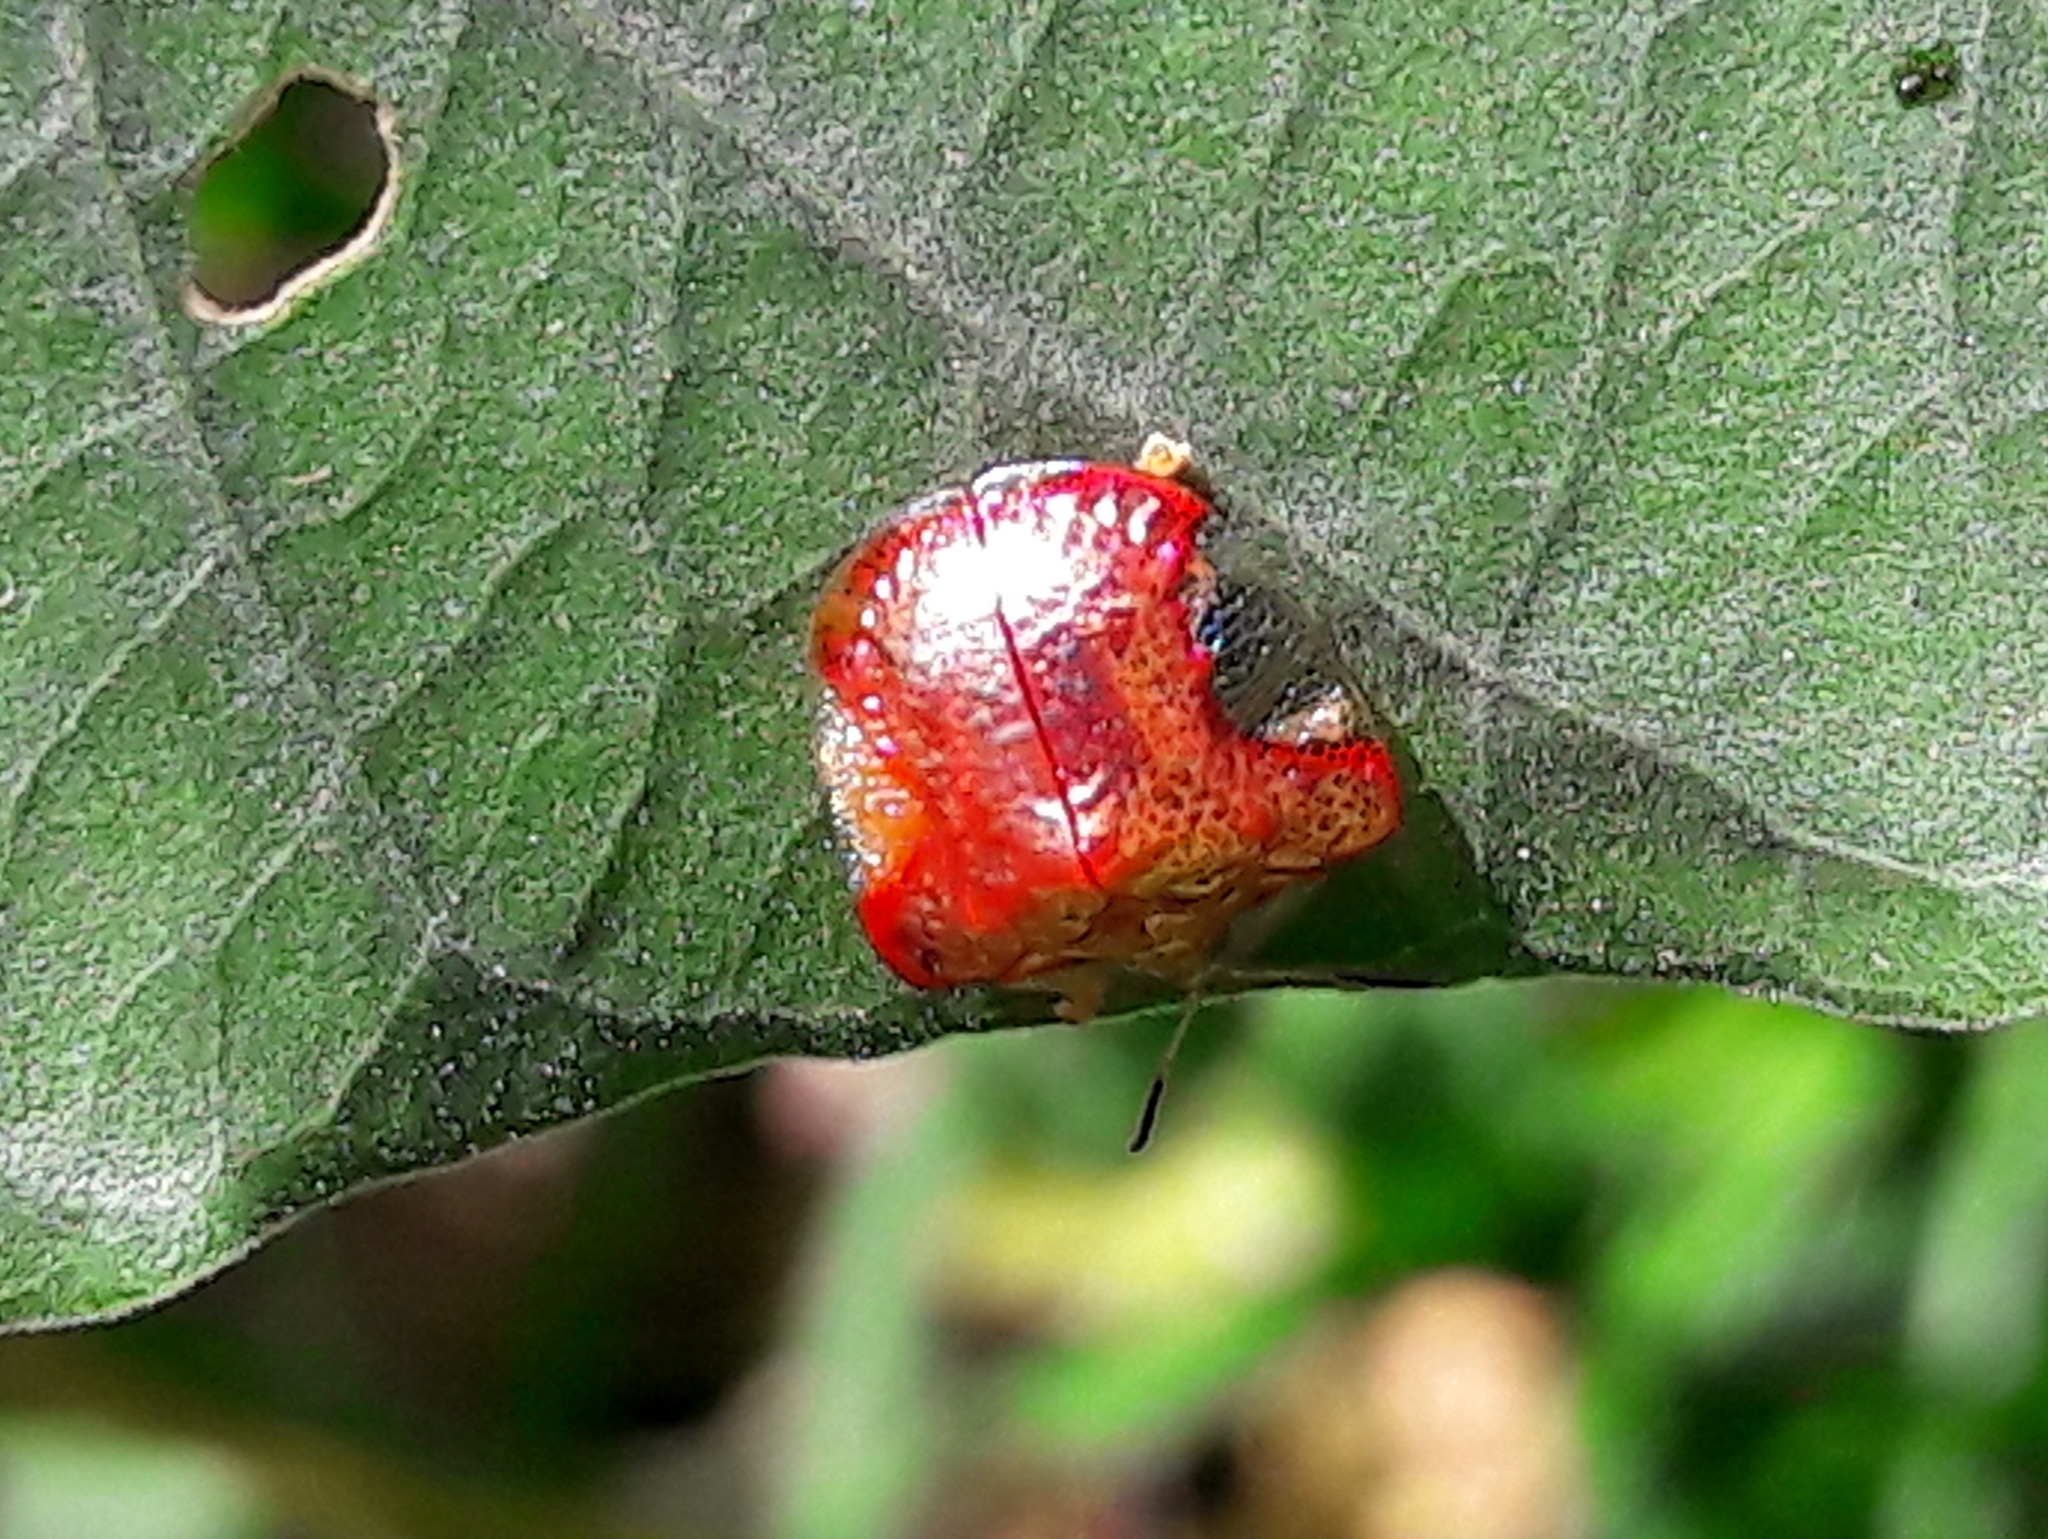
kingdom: Animalia
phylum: Arthropoda
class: Insecta
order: Coleoptera
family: Chrysomelidae
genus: Charidotella
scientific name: Charidotella rubicunda
